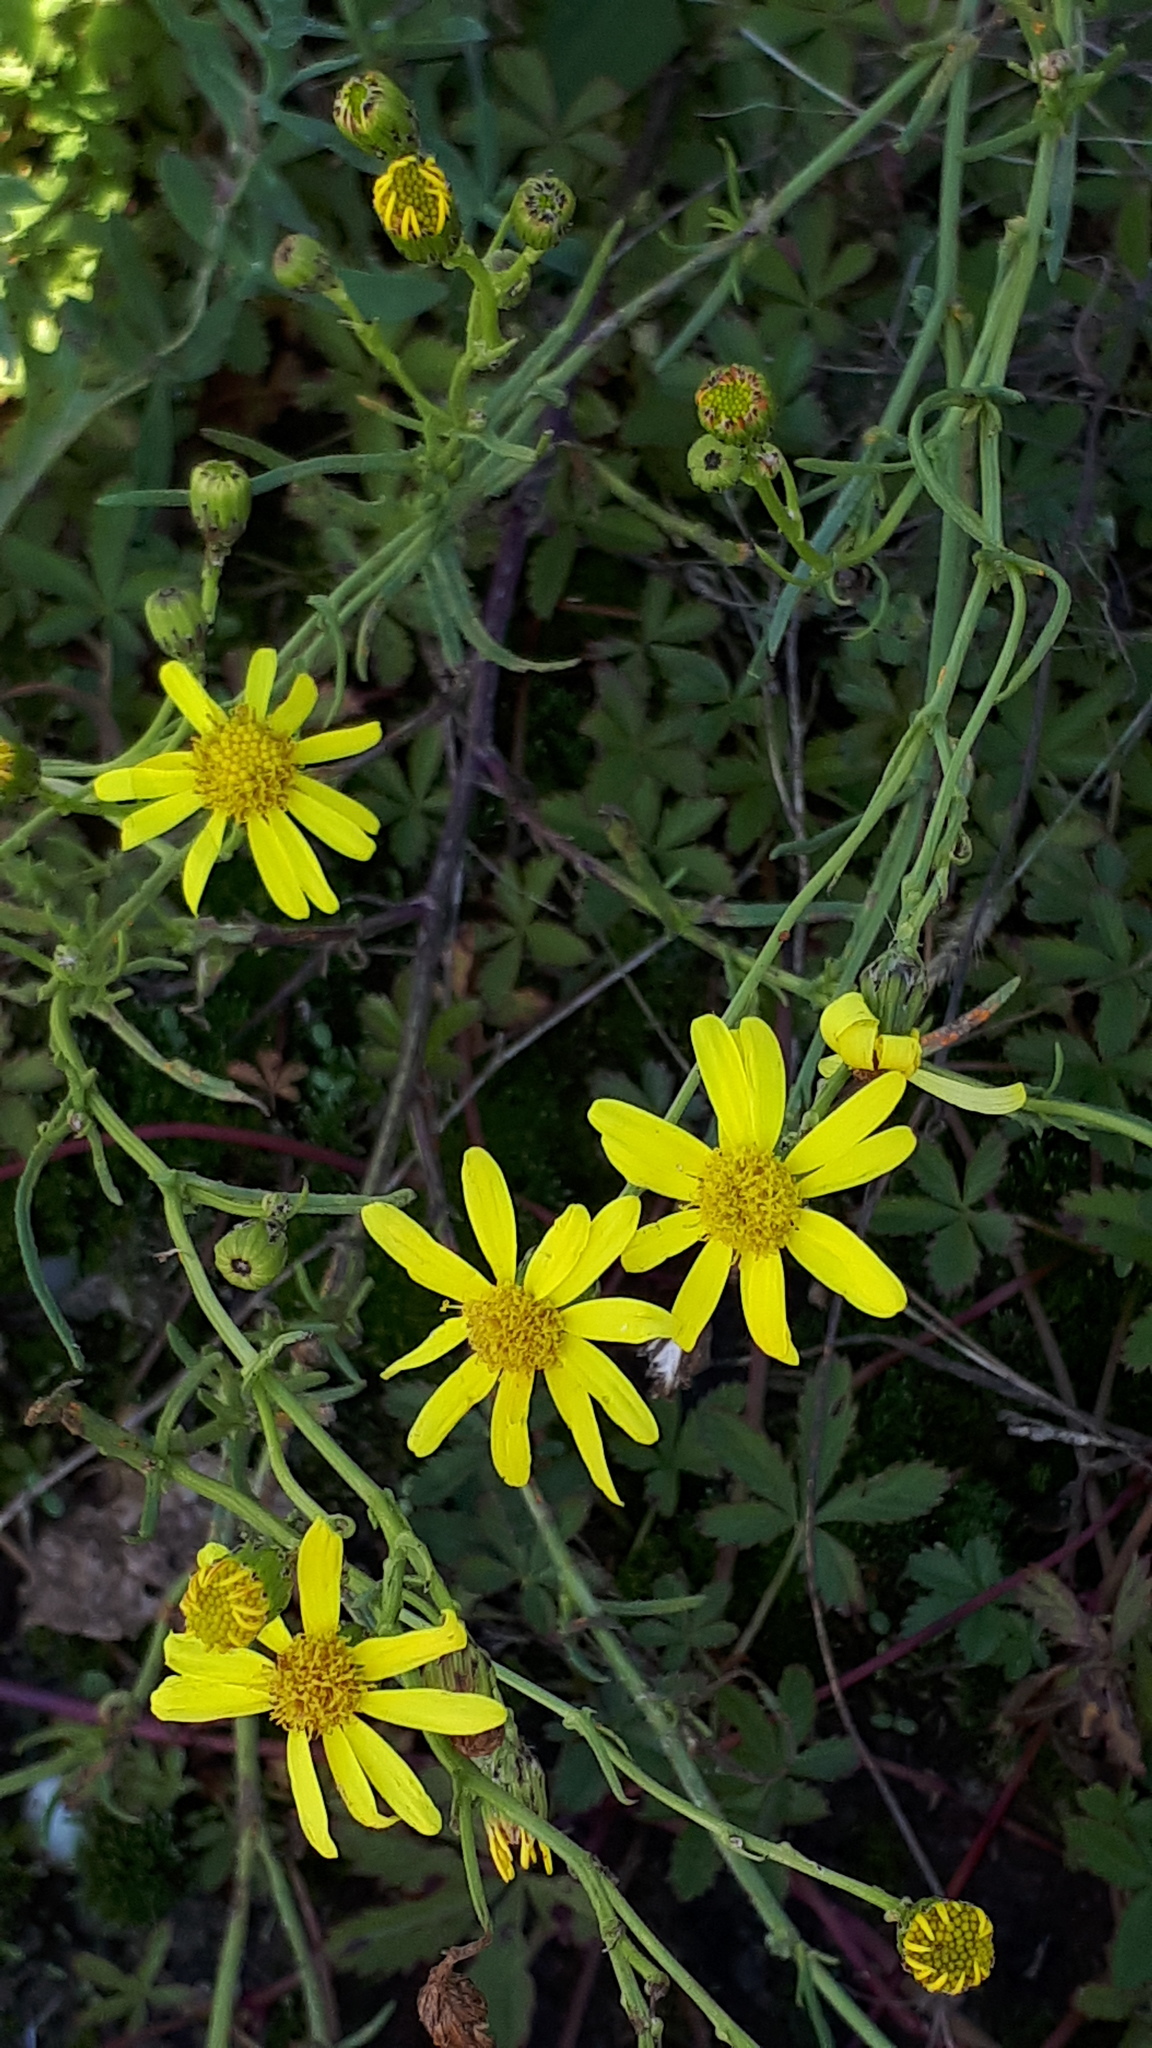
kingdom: Plantae
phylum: Tracheophyta
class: Magnoliopsida
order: Asterales
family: Asteraceae
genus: Senecio
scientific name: Senecio inaequidens
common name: Narrow-leaved ragwort
